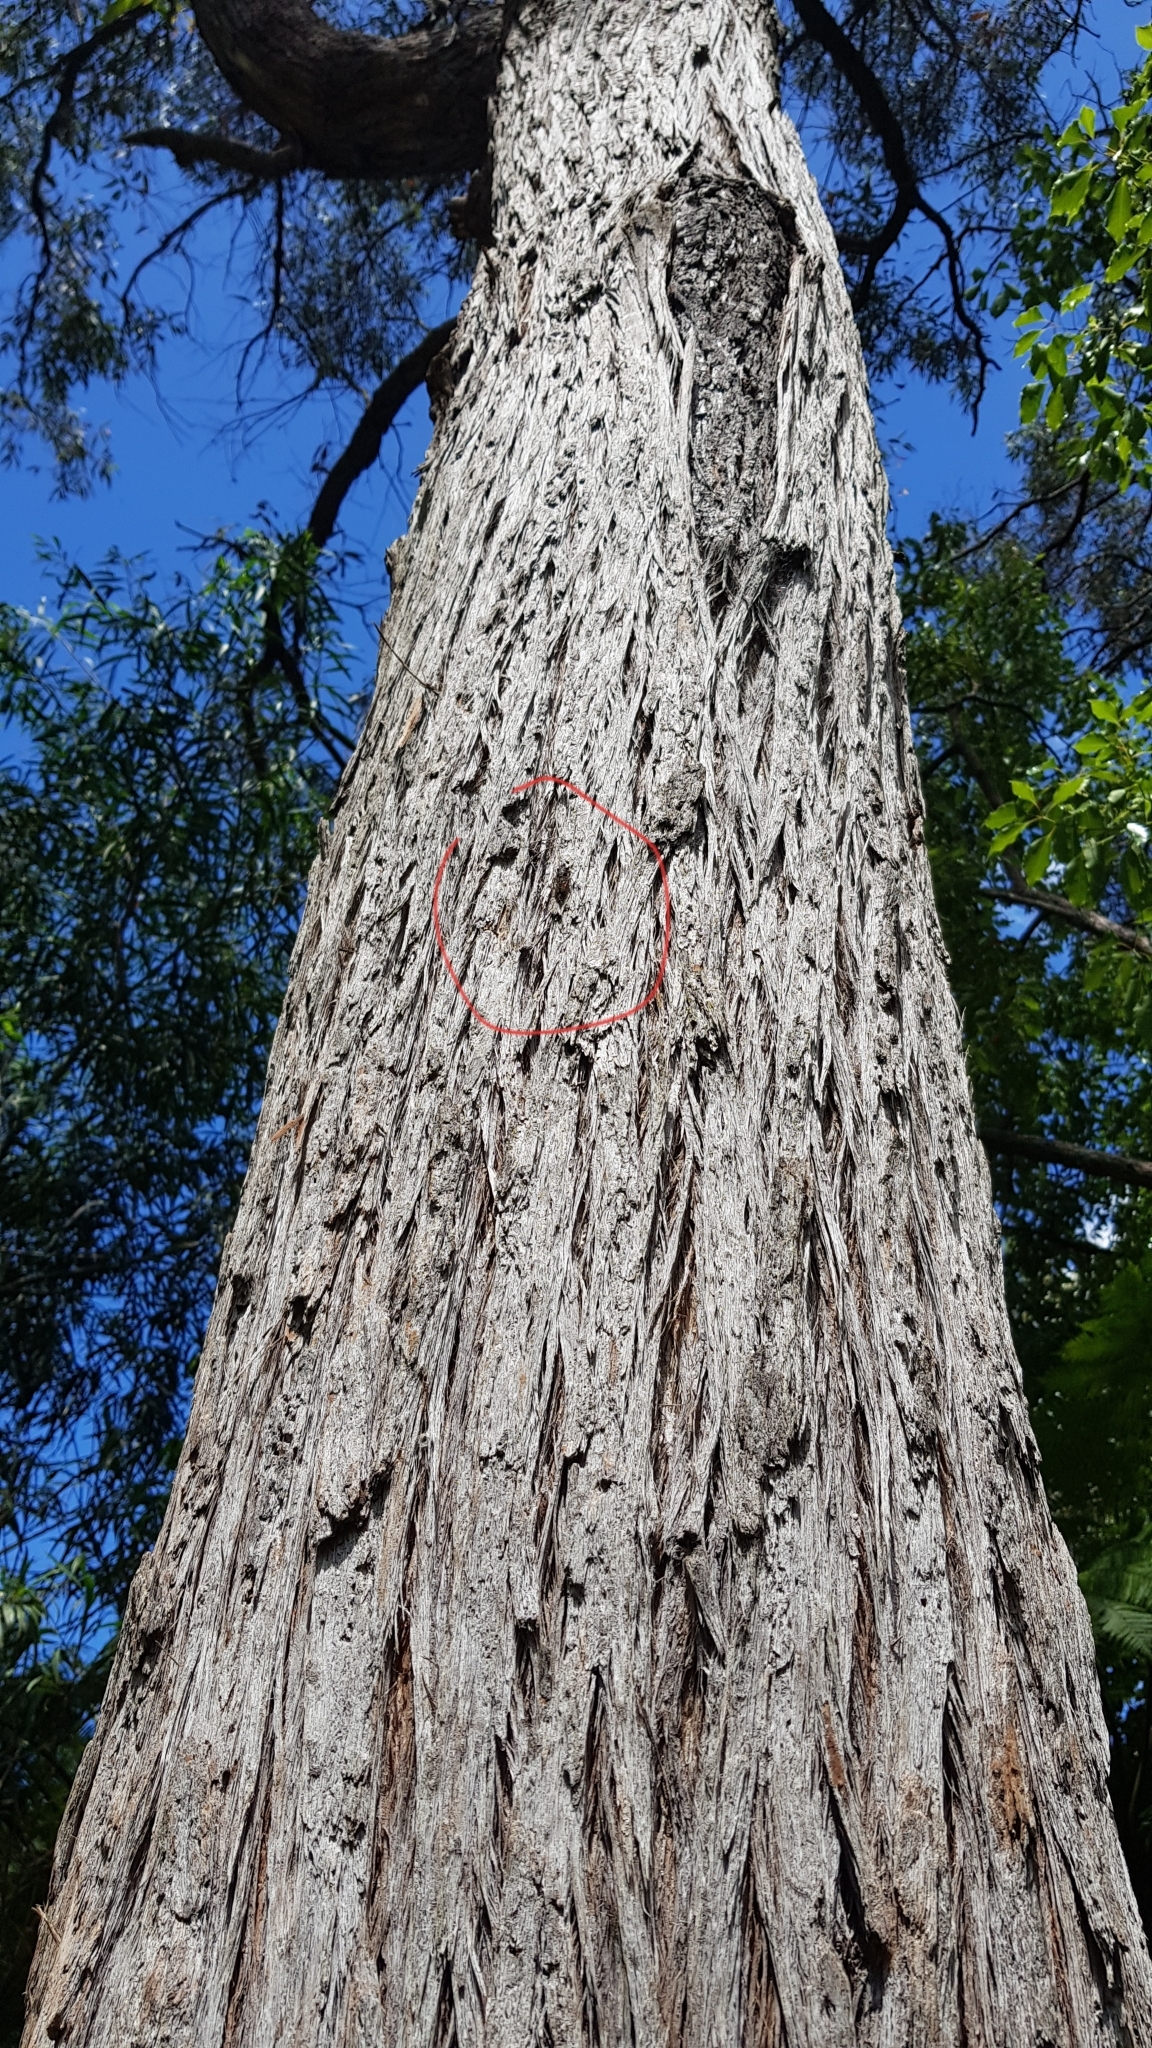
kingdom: Animalia
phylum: Arthropoda
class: Insecta
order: Hemiptera
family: Cicadidae
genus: Yoyetta
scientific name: Yoyetta repetens
